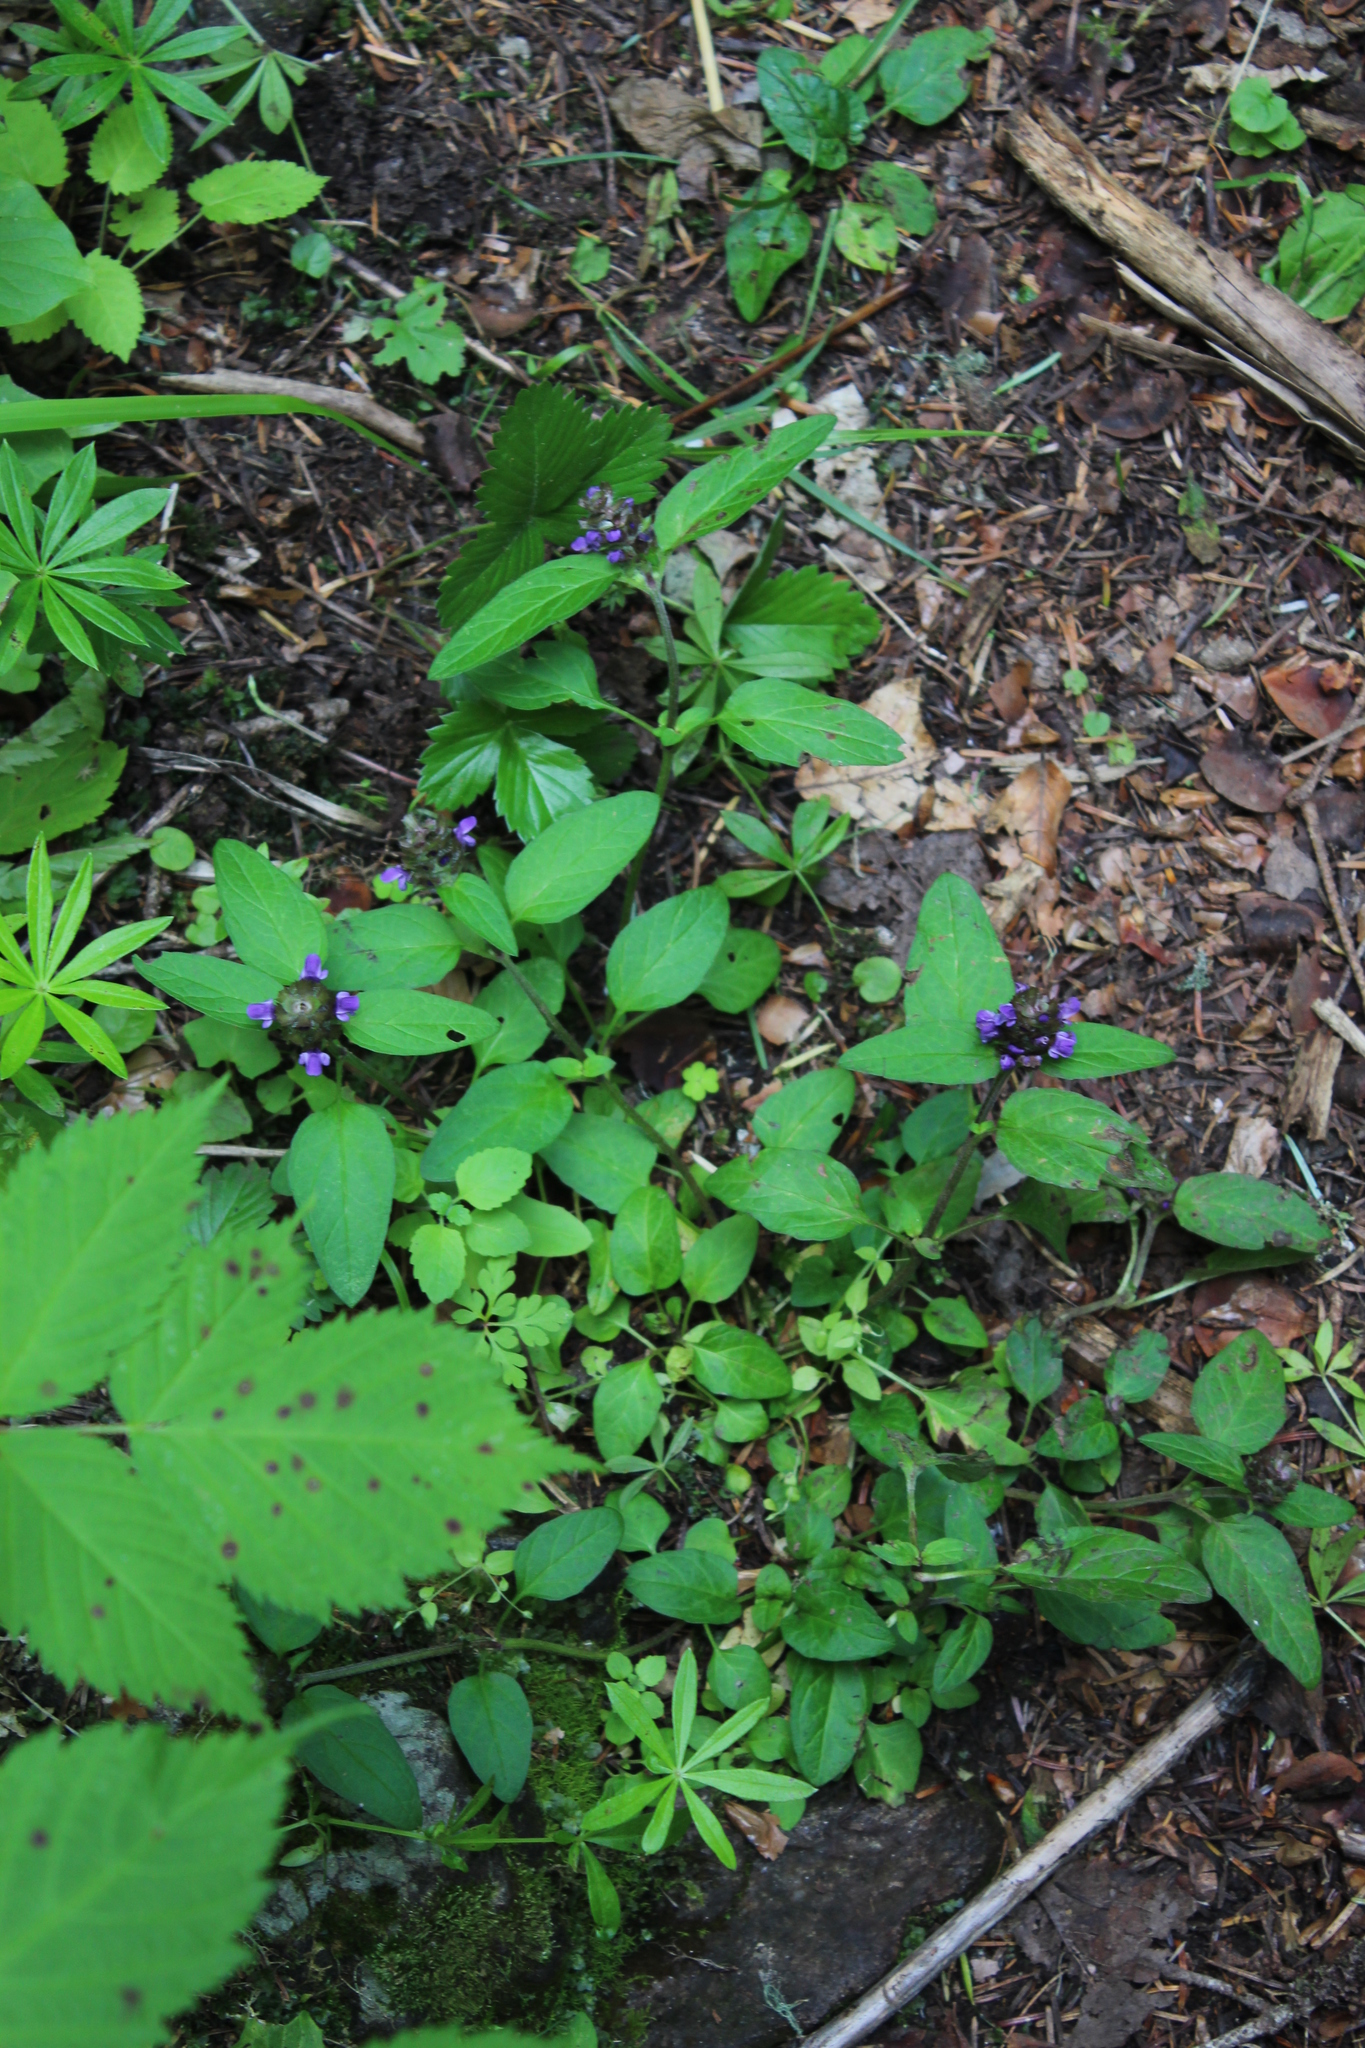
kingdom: Plantae
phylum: Tracheophyta
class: Magnoliopsida
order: Lamiales
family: Lamiaceae
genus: Prunella
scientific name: Prunella vulgaris
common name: Heal-all
